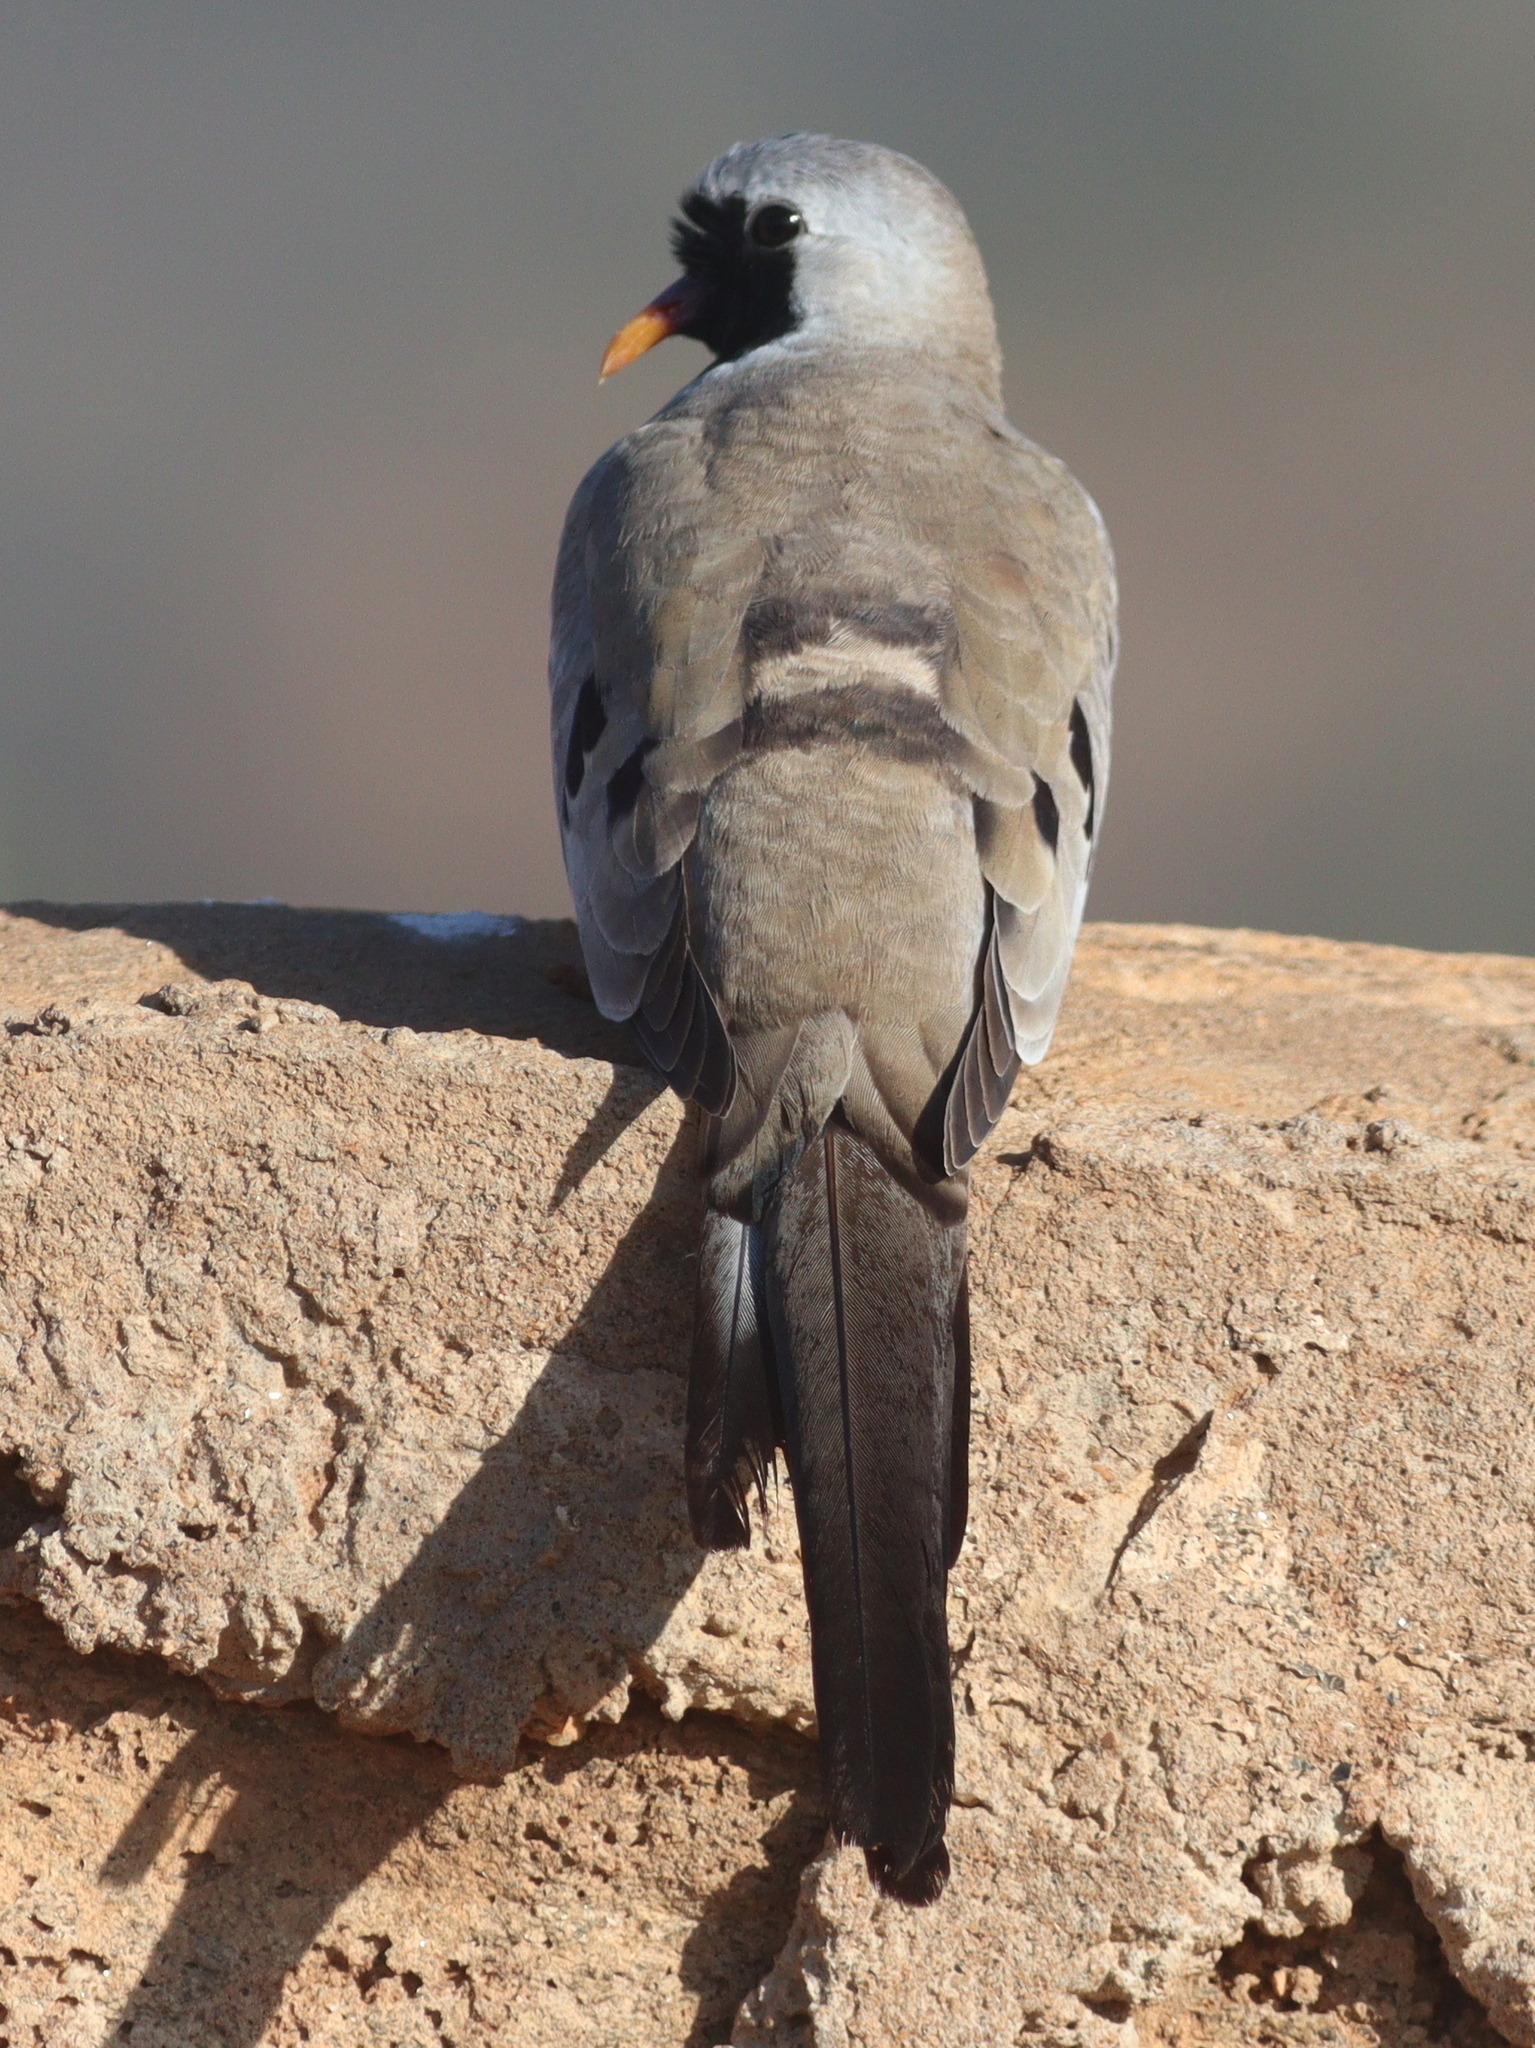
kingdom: Animalia
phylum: Chordata
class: Aves
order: Columbiformes
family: Columbidae
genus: Oena
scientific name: Oena capensis
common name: Namaqua dove
